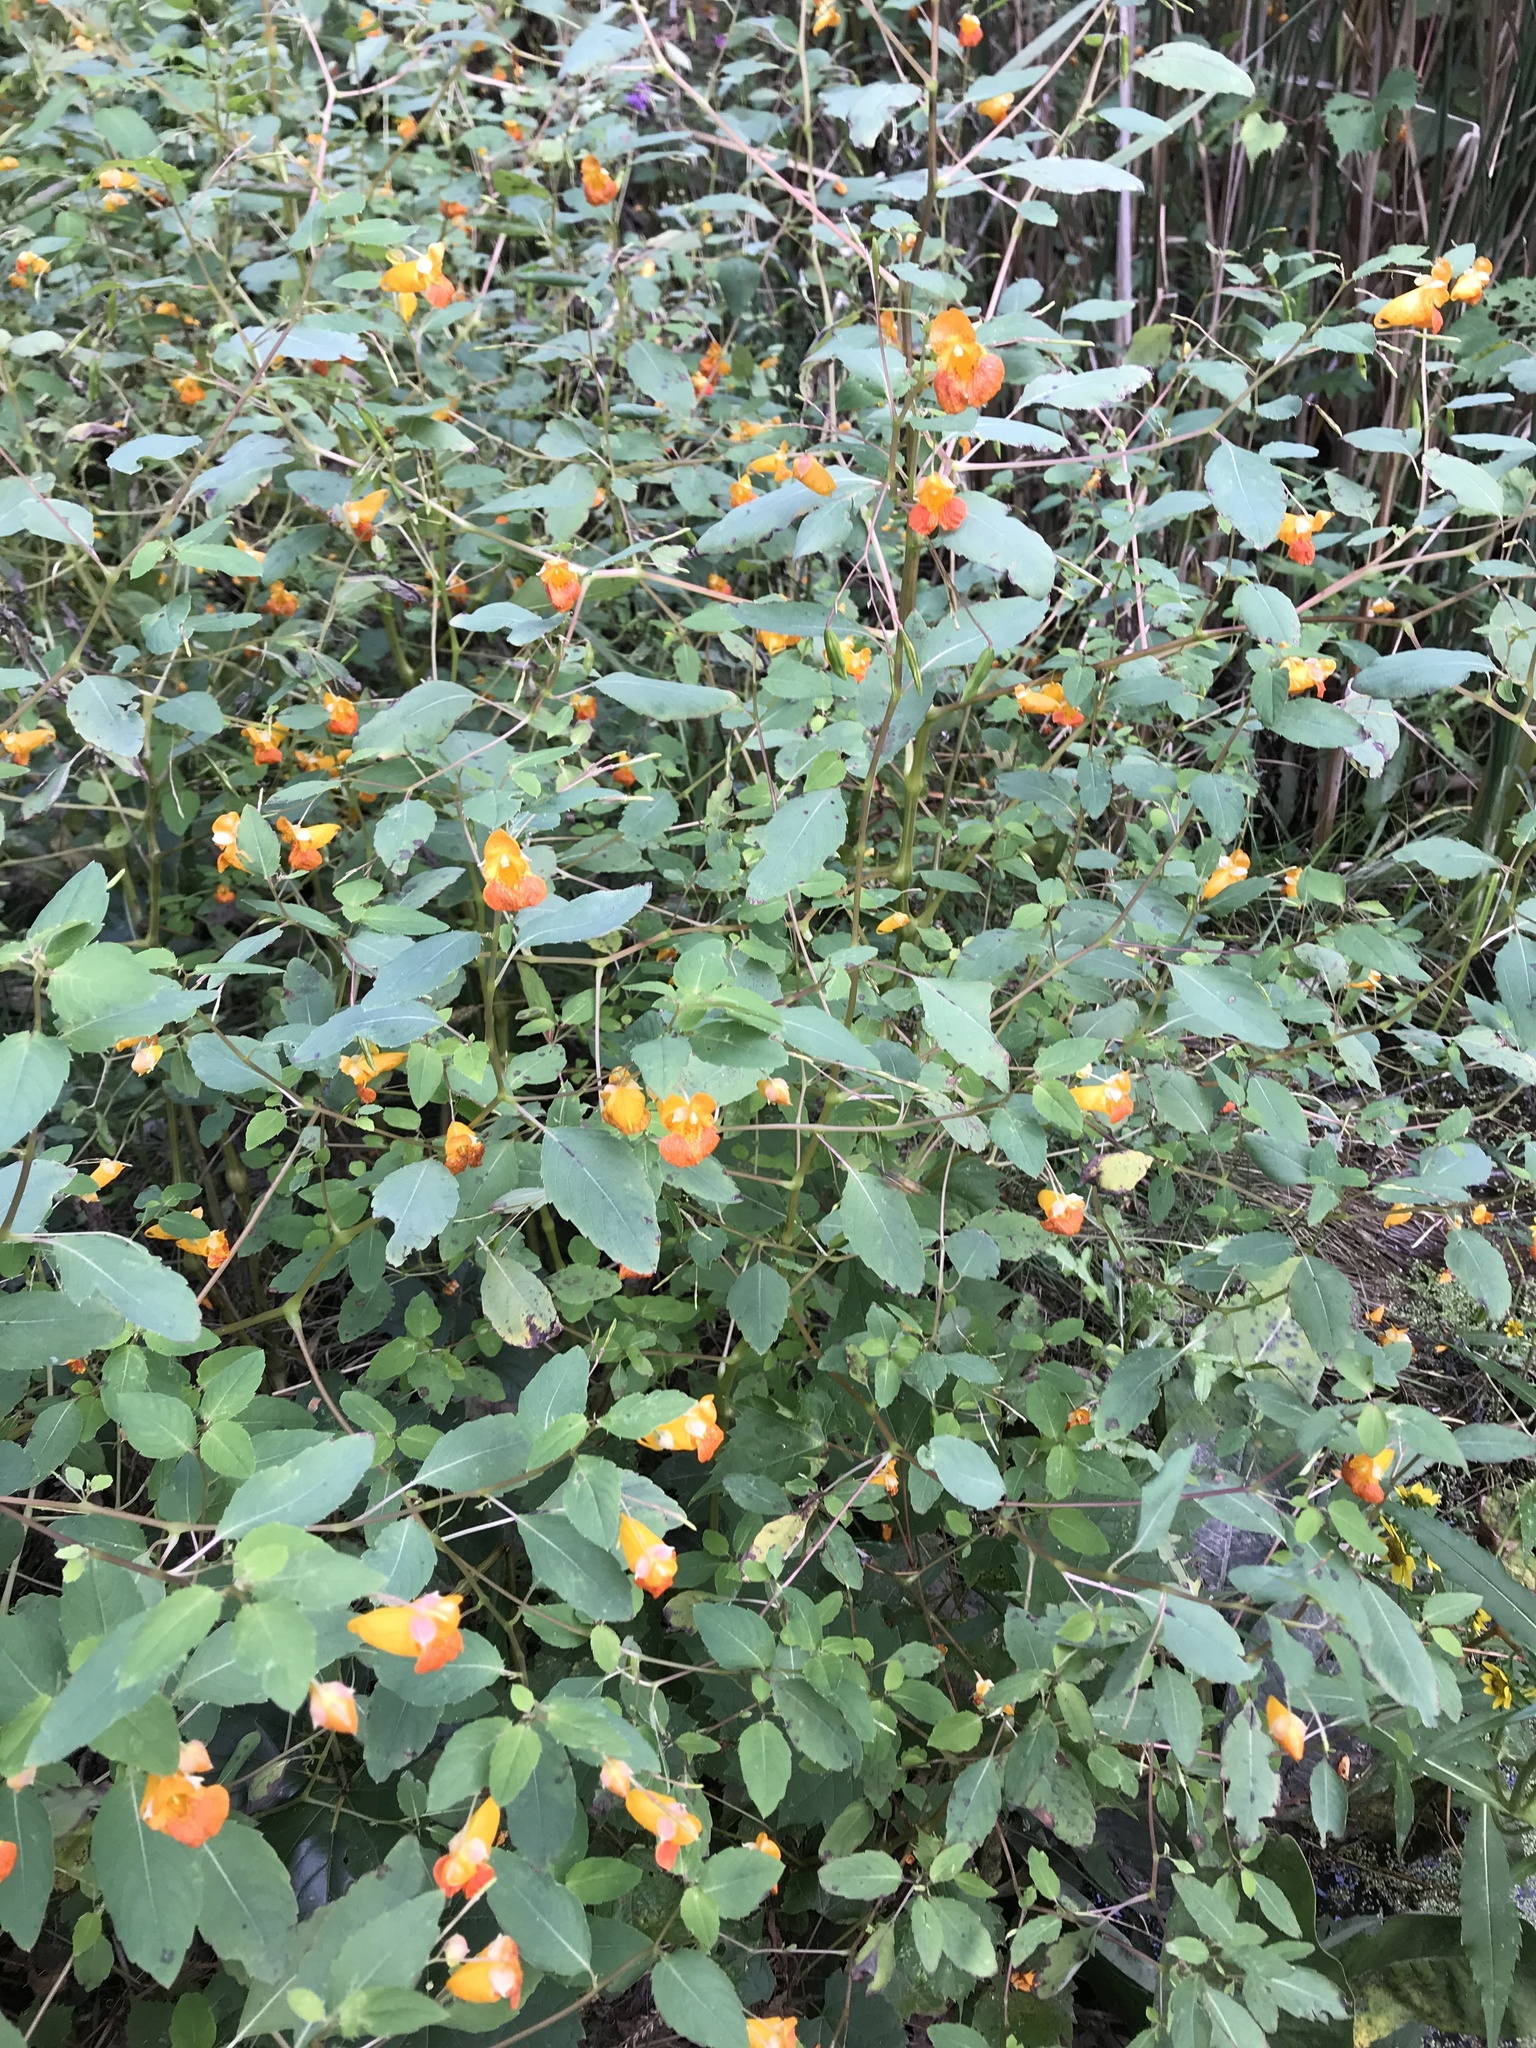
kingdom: Plantae
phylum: Tracheophyta
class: Magnoliopsida
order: Ericales
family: Balsaminaceae
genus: Impatiens
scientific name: Impatiens capensis
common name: Orange balsam
